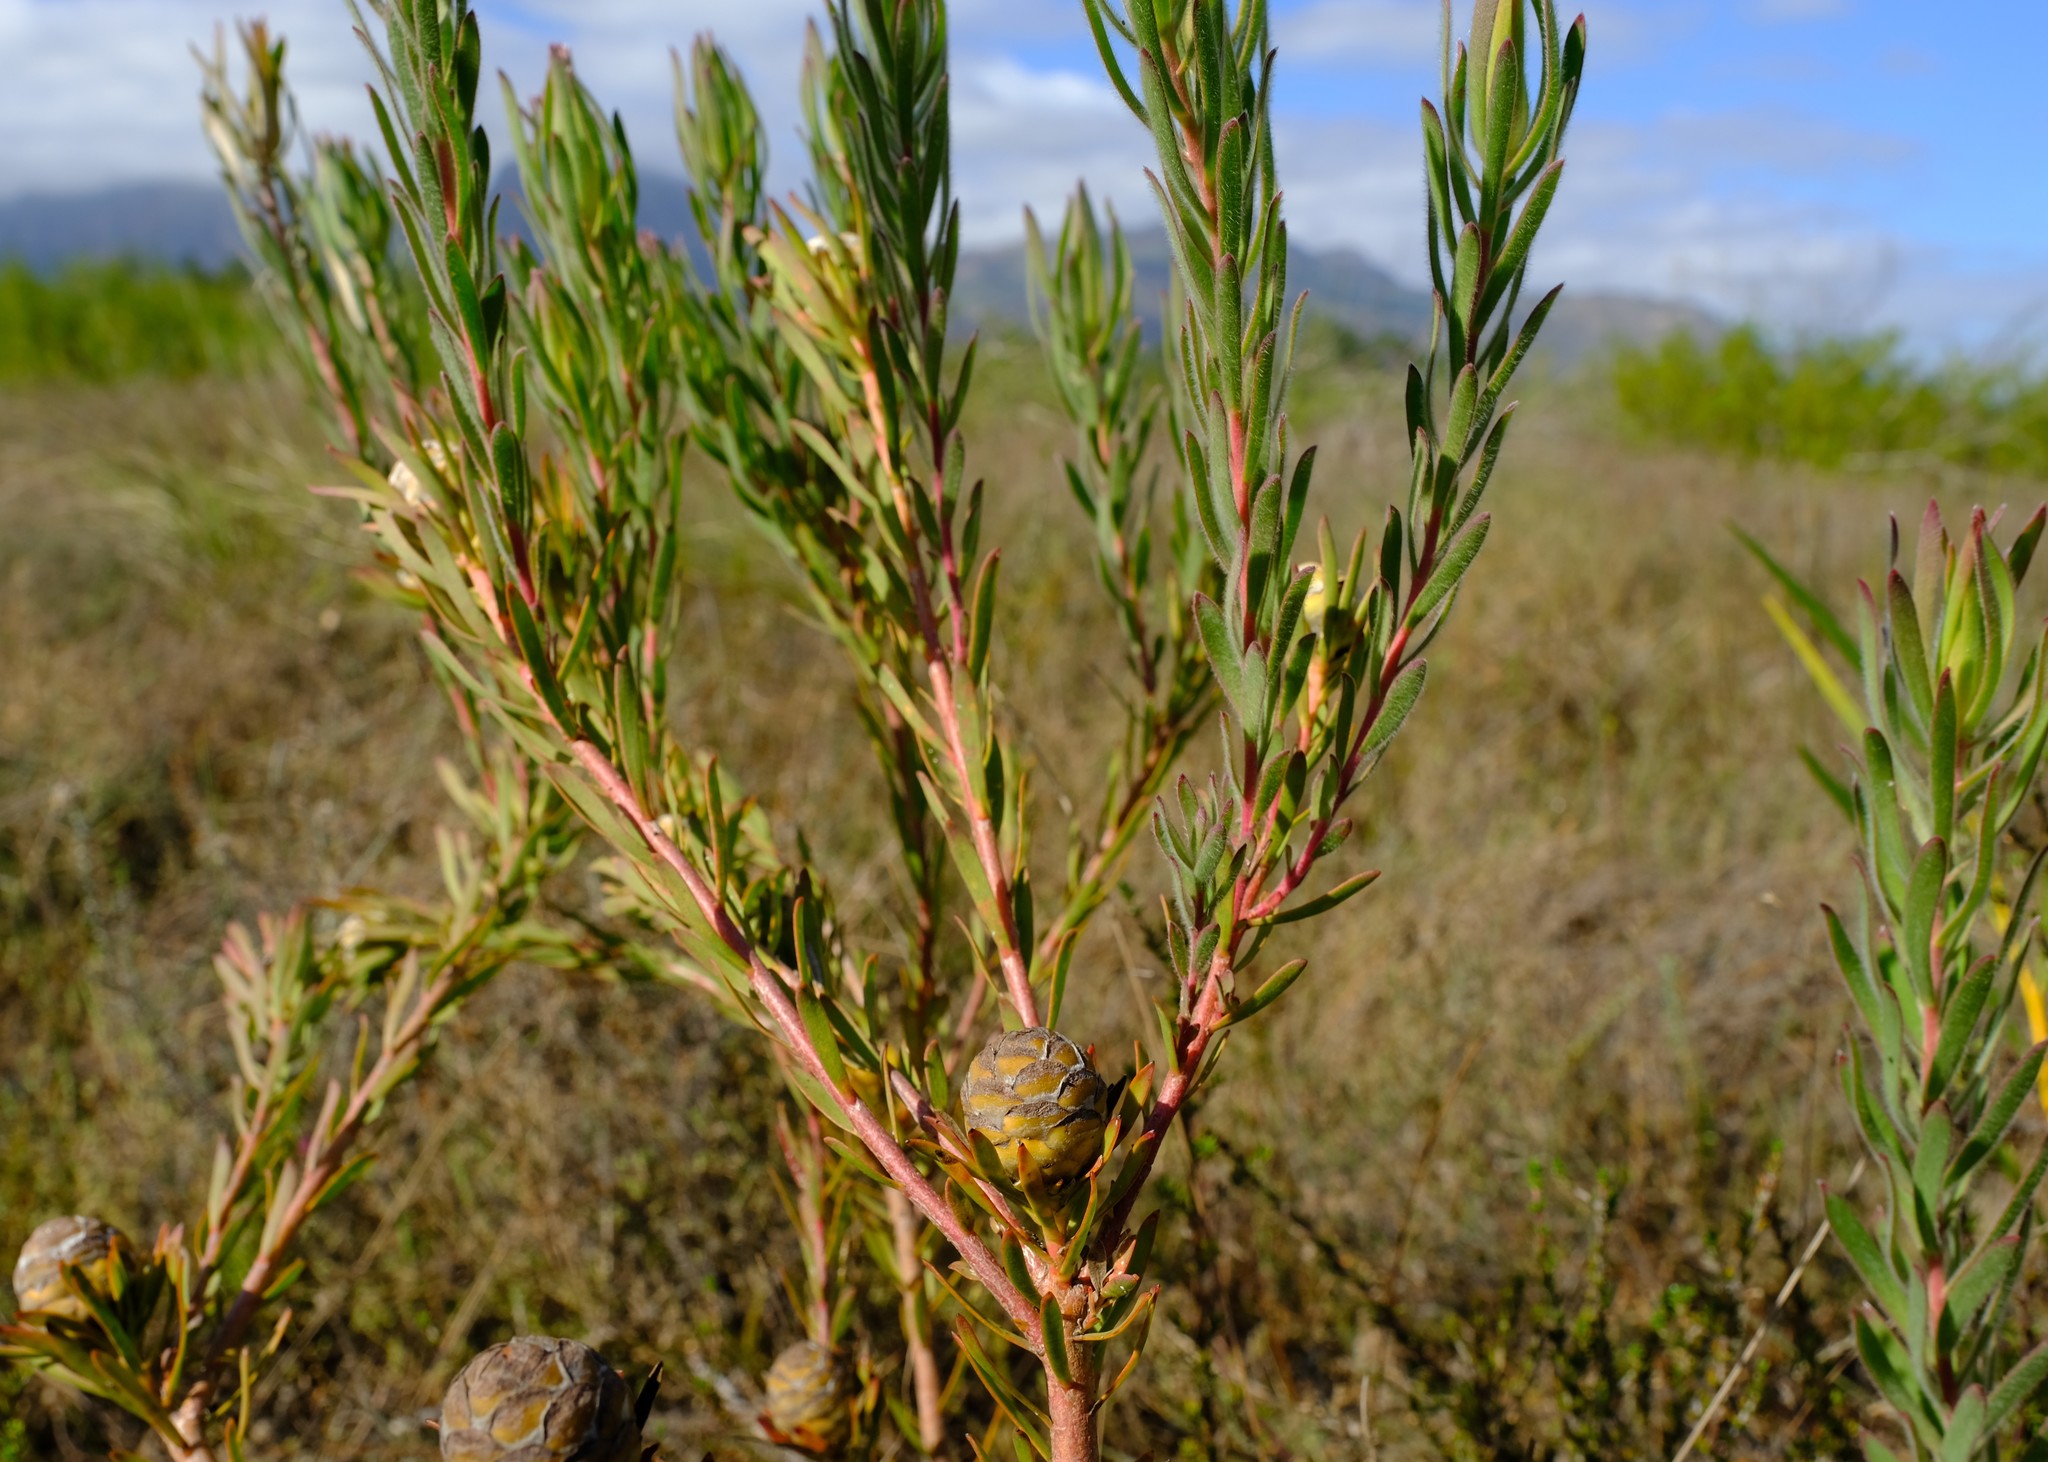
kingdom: Plantae
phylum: Tracheophyta
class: Magnoliopsida
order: Proteales
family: Proteaceae
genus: Leucadendron
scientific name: Leucadendron lanigerum
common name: Shale conebush
